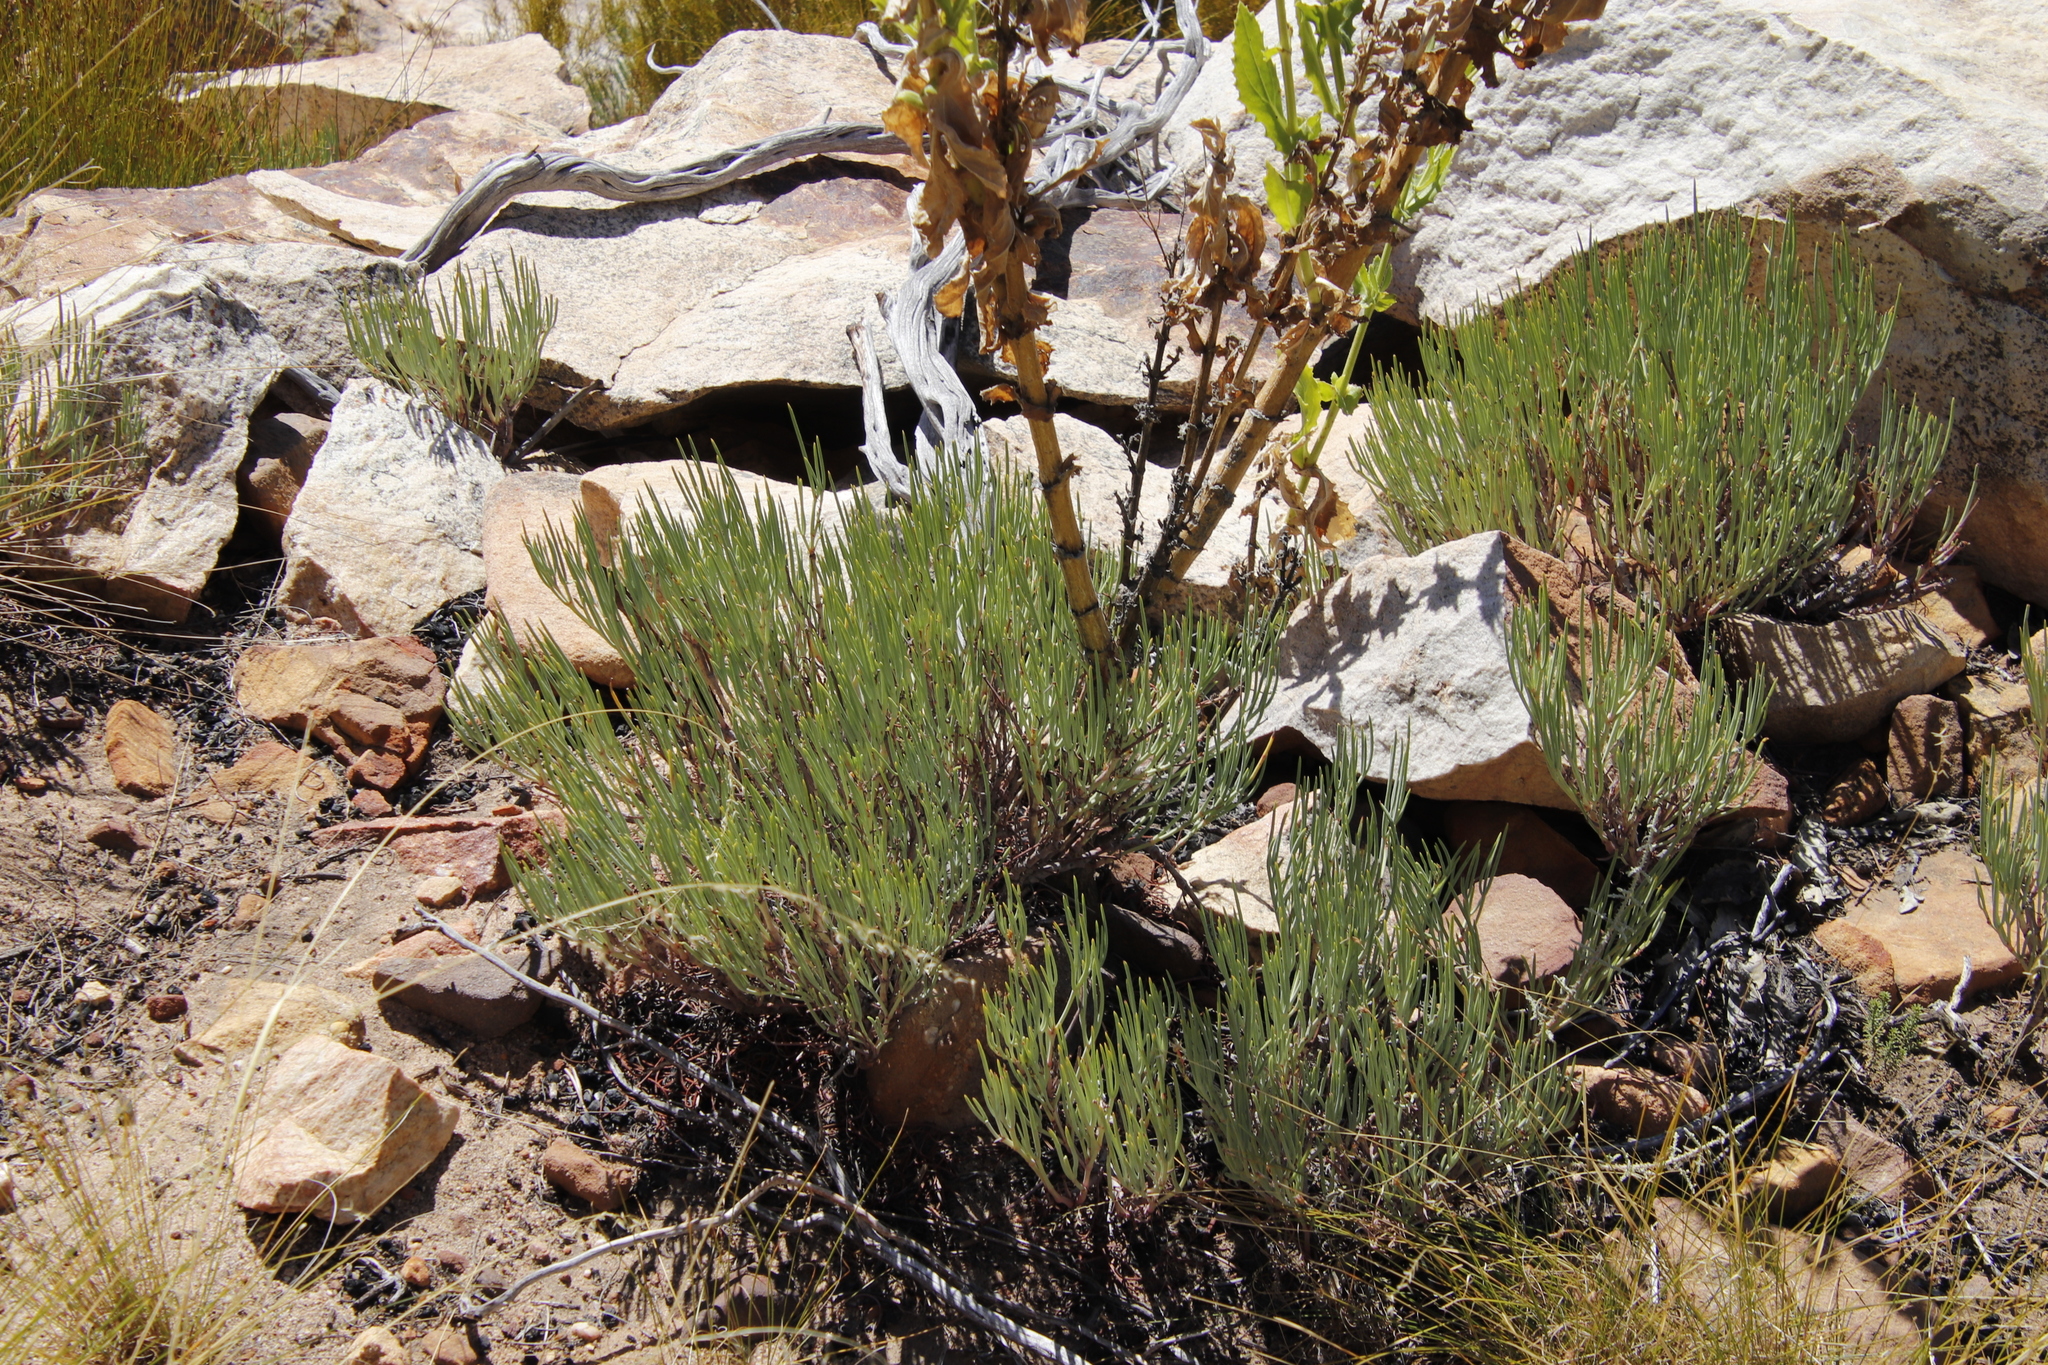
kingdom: Plantae
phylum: Tracheophyta
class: Magnoliopsida
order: Geraniales
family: Geraniaceae
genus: Pelargonium
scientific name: Pelargonium laevigatum
